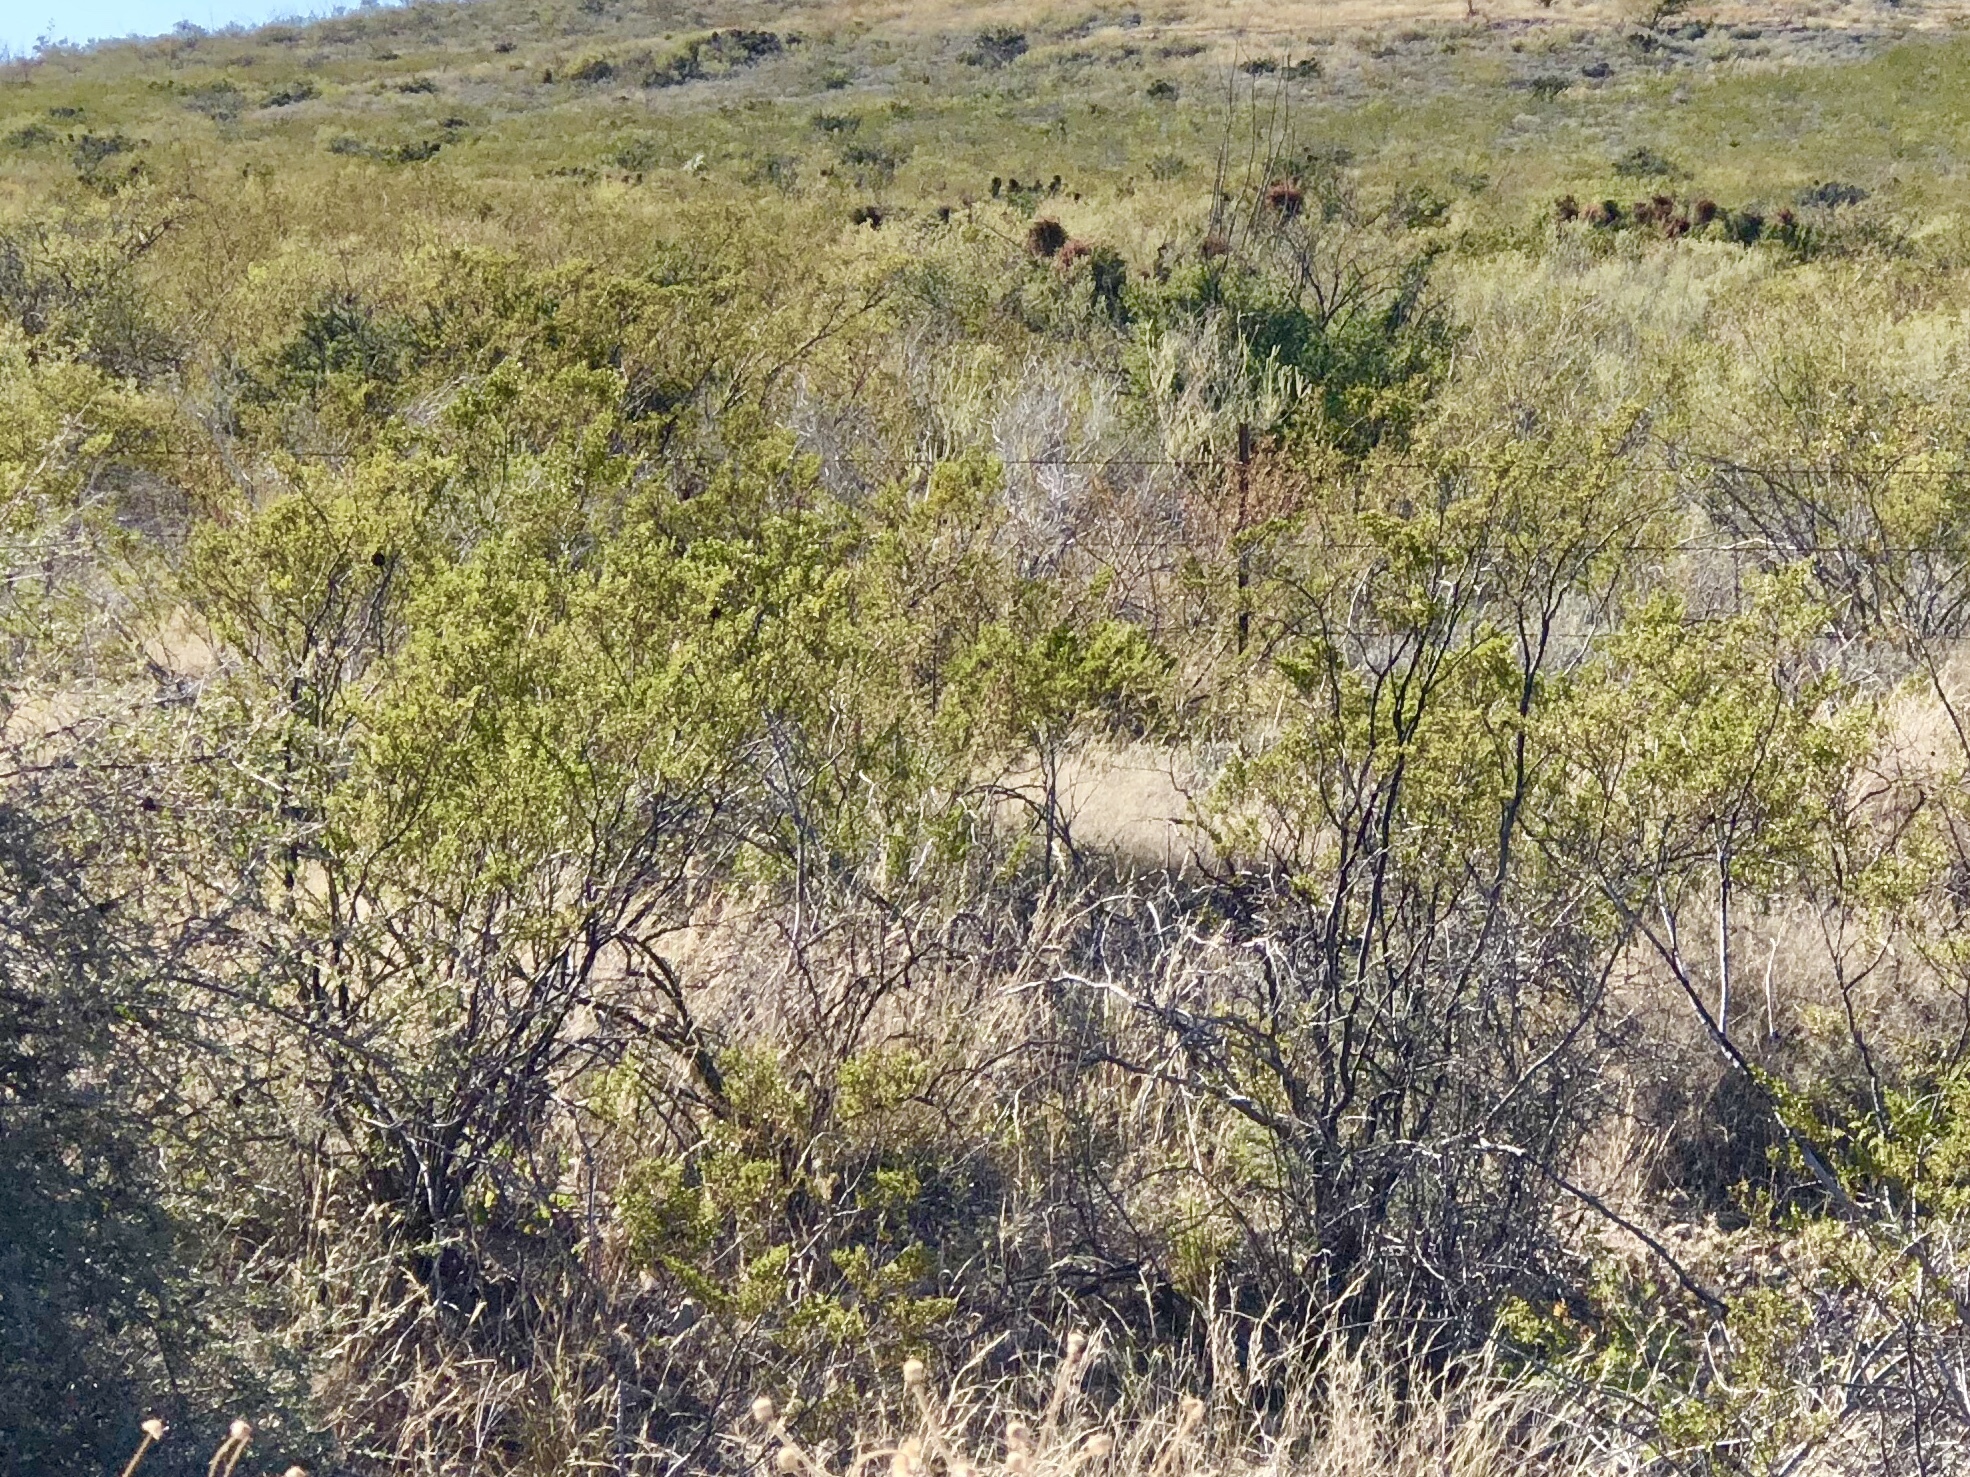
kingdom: Plantae
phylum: Tracheophyta
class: Magnoliopsida
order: Zygophyllales
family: Zygophyllaceae
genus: Larrea
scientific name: Larrea tridentata
